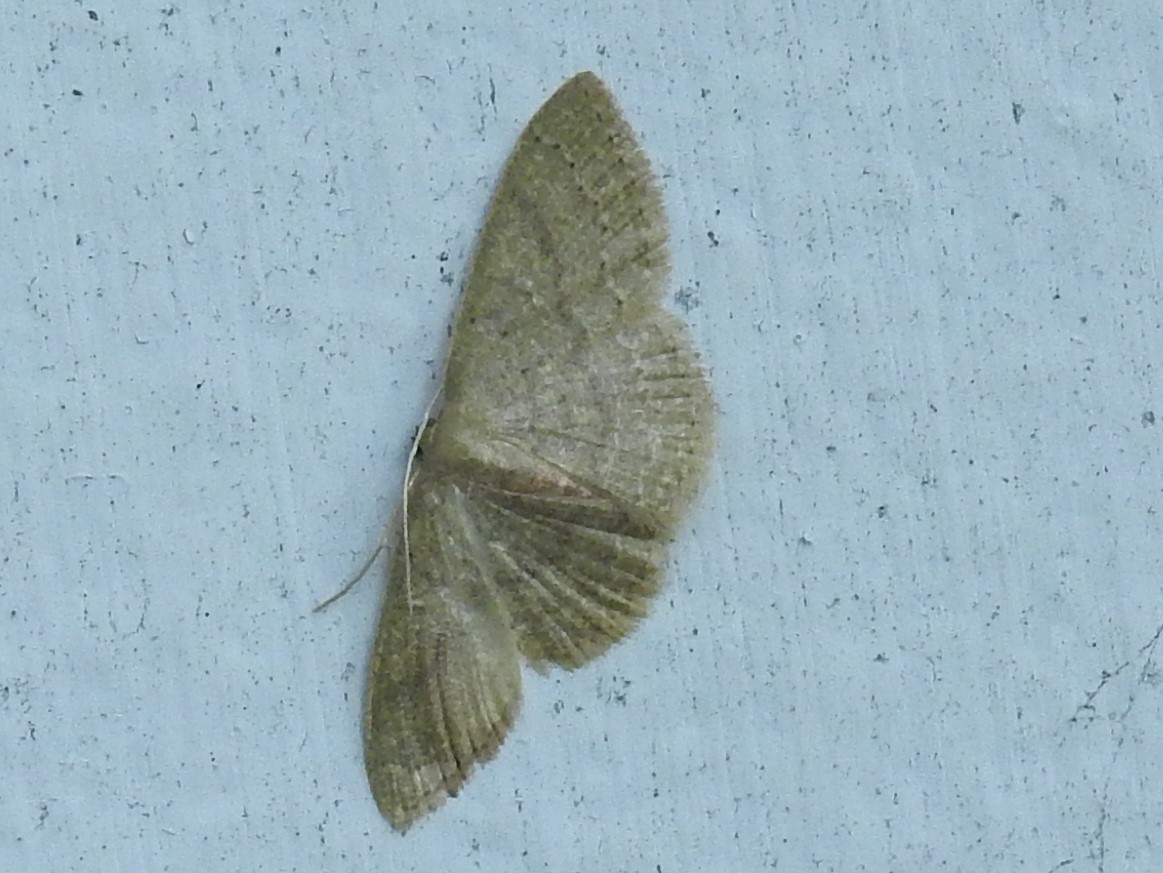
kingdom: Animalia
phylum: Arthropoda
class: Insecta
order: Lepidoptera
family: Geometridae
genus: Pleuroprucha
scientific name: Pleuroprucha insulsaria
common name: Common tan wave
